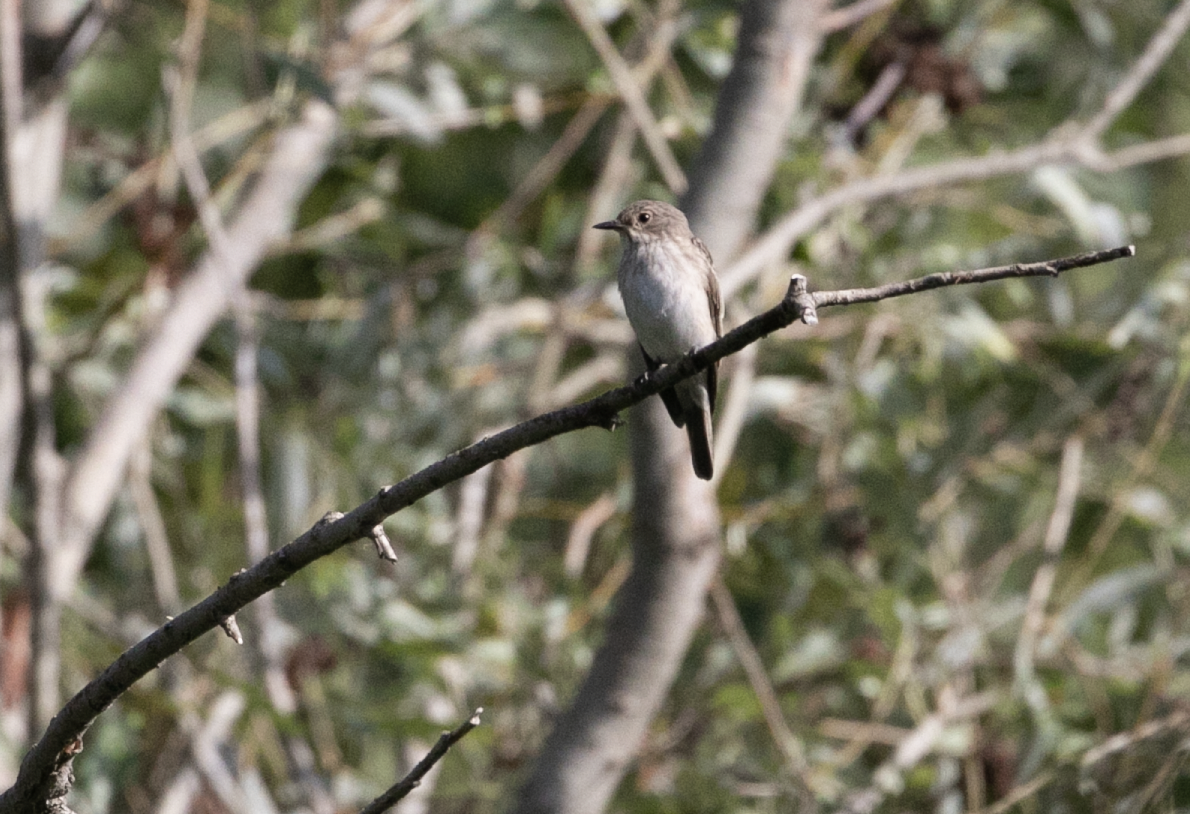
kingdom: Animalia
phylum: Chordata
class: Aves
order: Passeriformes
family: Muscicapidae
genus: Muscicapa
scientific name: Muscicapa striata
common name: Spotted flycatcher
